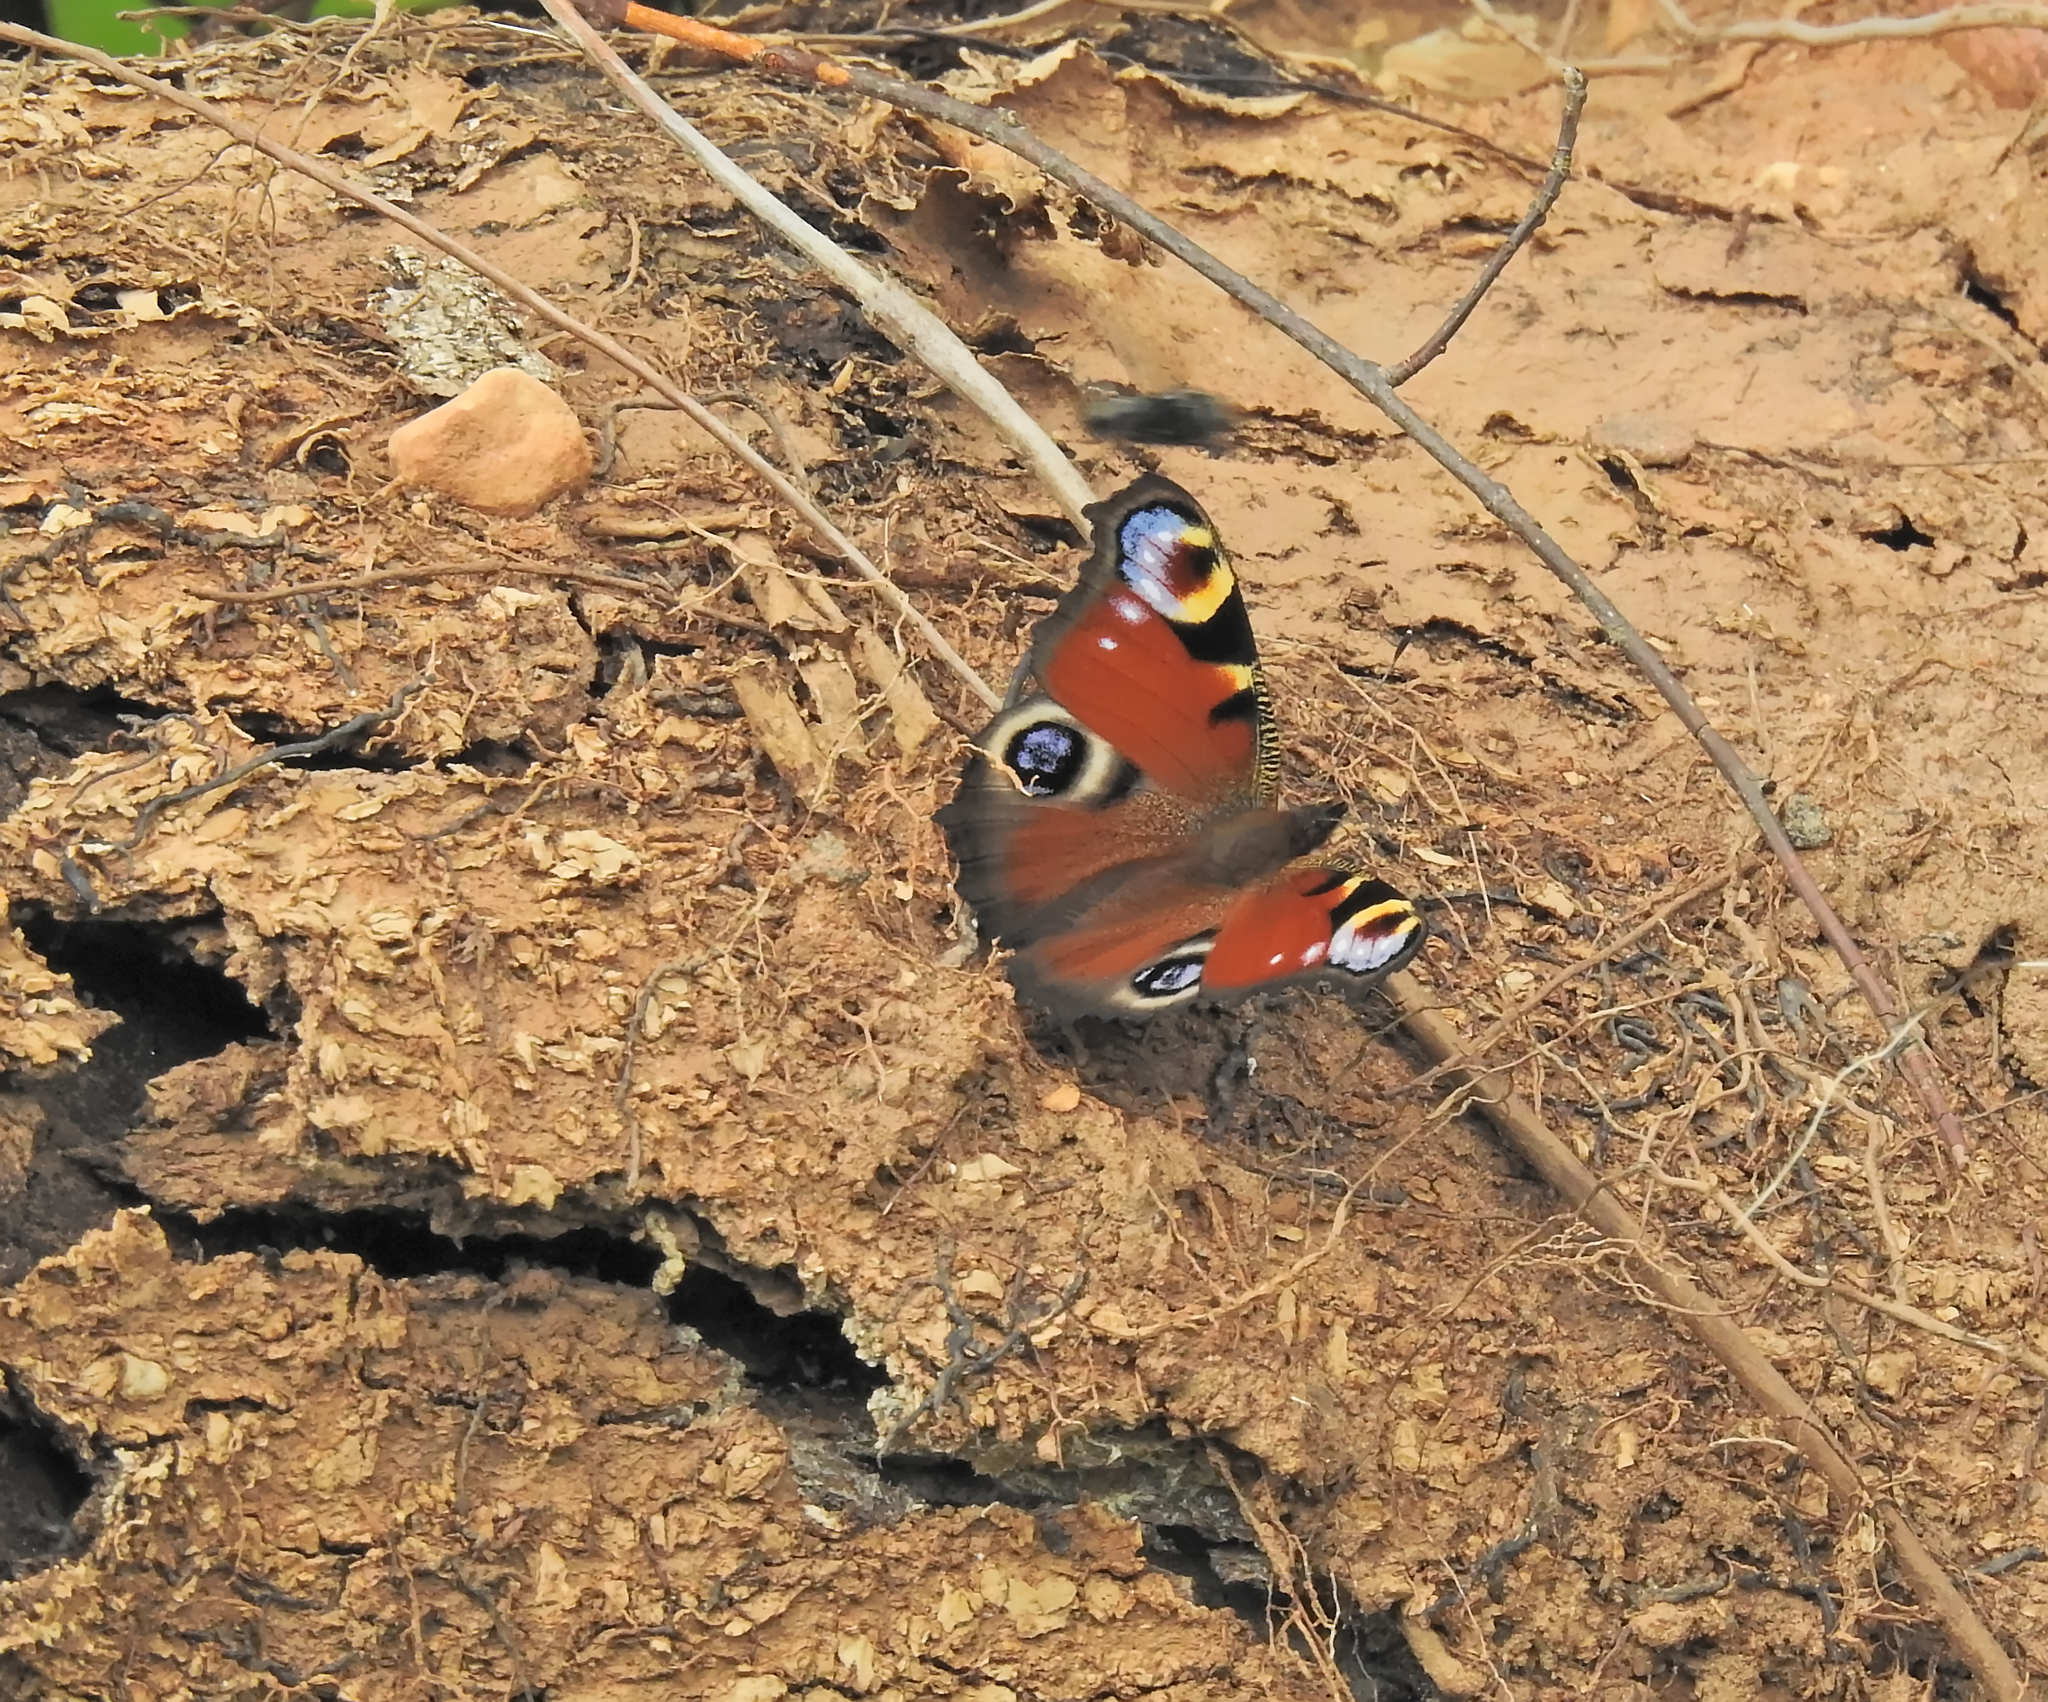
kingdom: Animalia
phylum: Arthropoda
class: Insecta
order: Lepidoptera
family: Nymphalidae
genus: Aglais
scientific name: Aglais io
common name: Peacock
